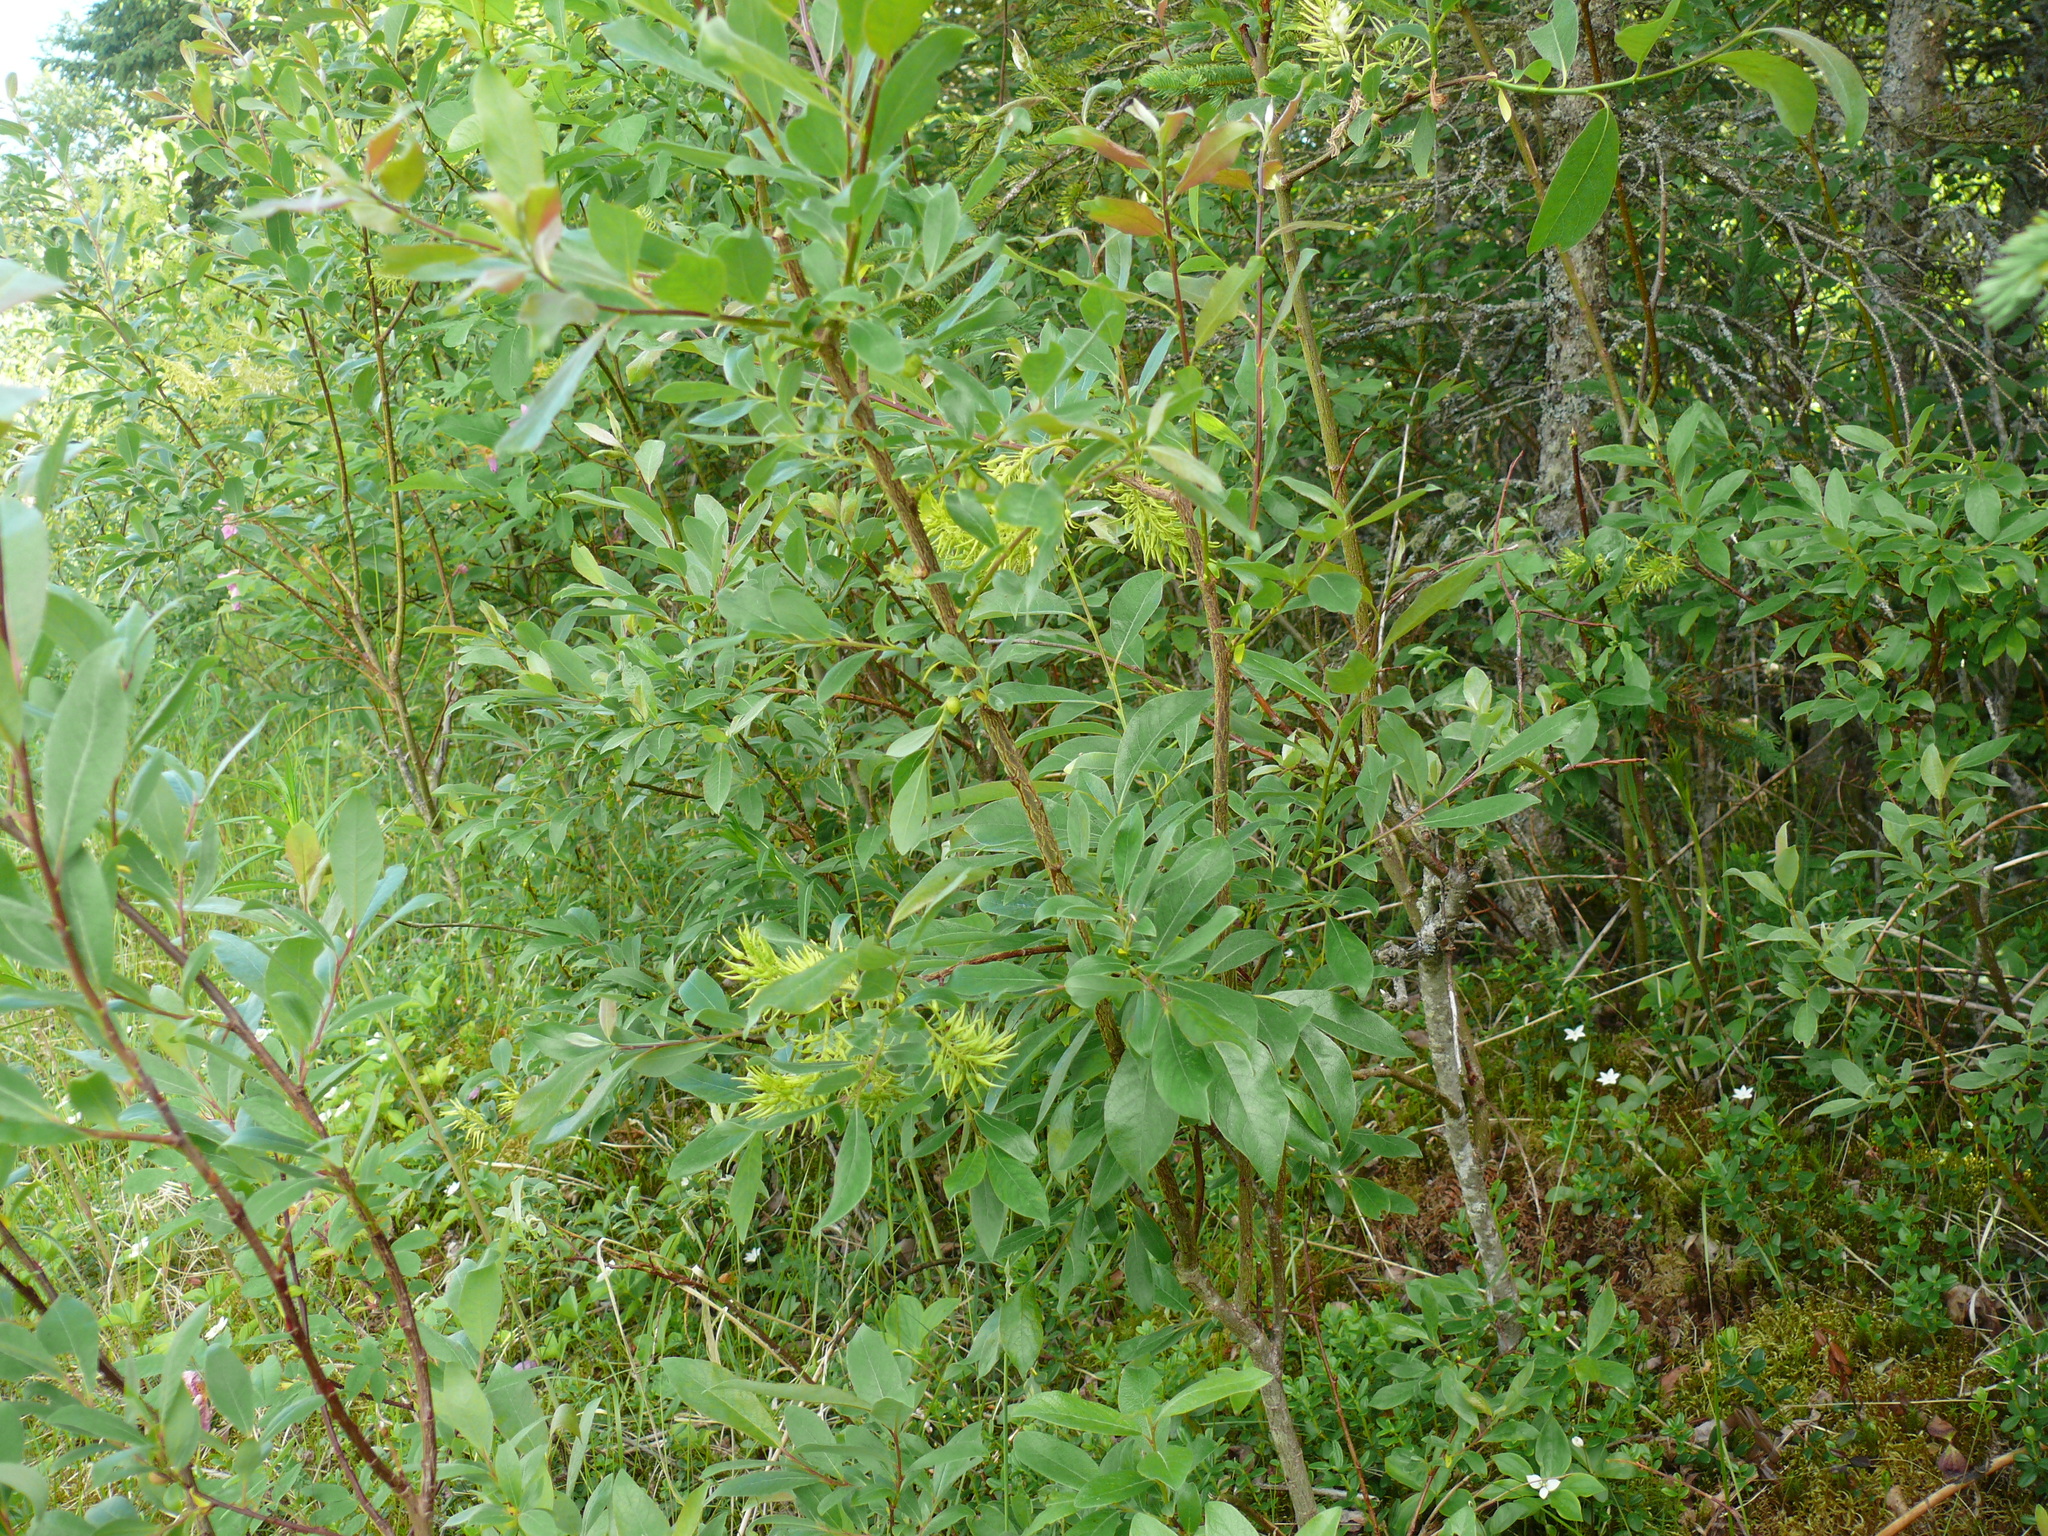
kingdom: Plantae
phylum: Tracheophyta
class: Magnoliopsida
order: Malpighiales
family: Salicaceae
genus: Salix
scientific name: Salix bebbiana
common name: Bebb's willow
